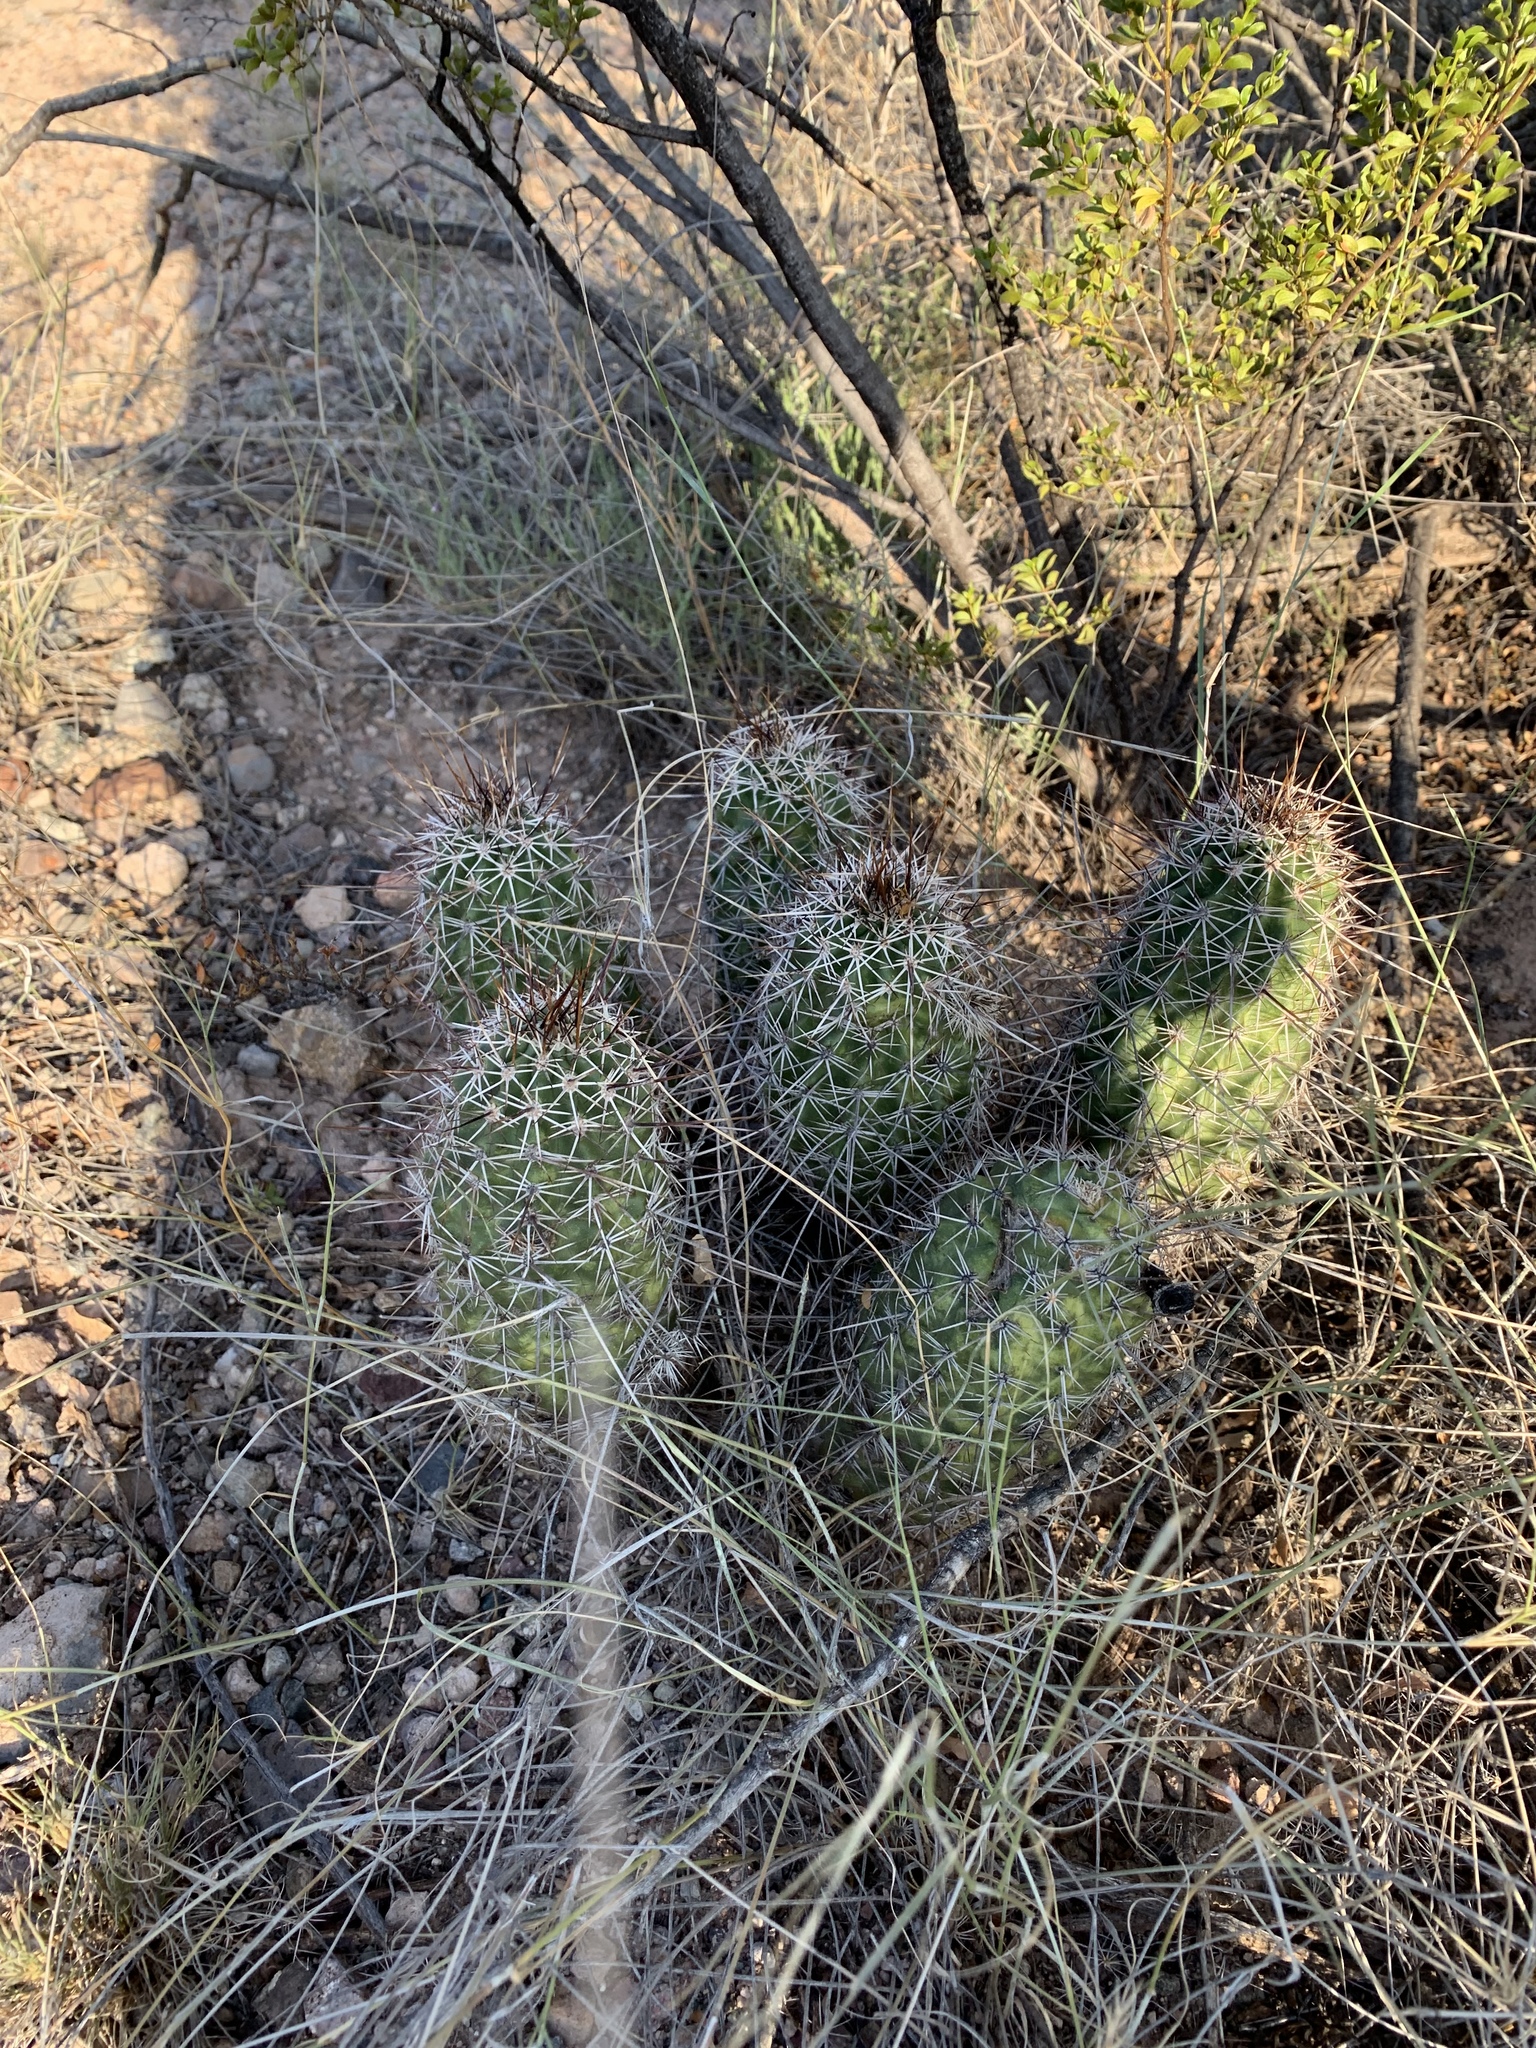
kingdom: Plantae
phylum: Tracheophyta
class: Magnoliopsida
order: Caryophyllales
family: Cactaceae
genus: Echinocereus
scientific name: Echinocereus fasciculatus
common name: Bundle hedgehog
